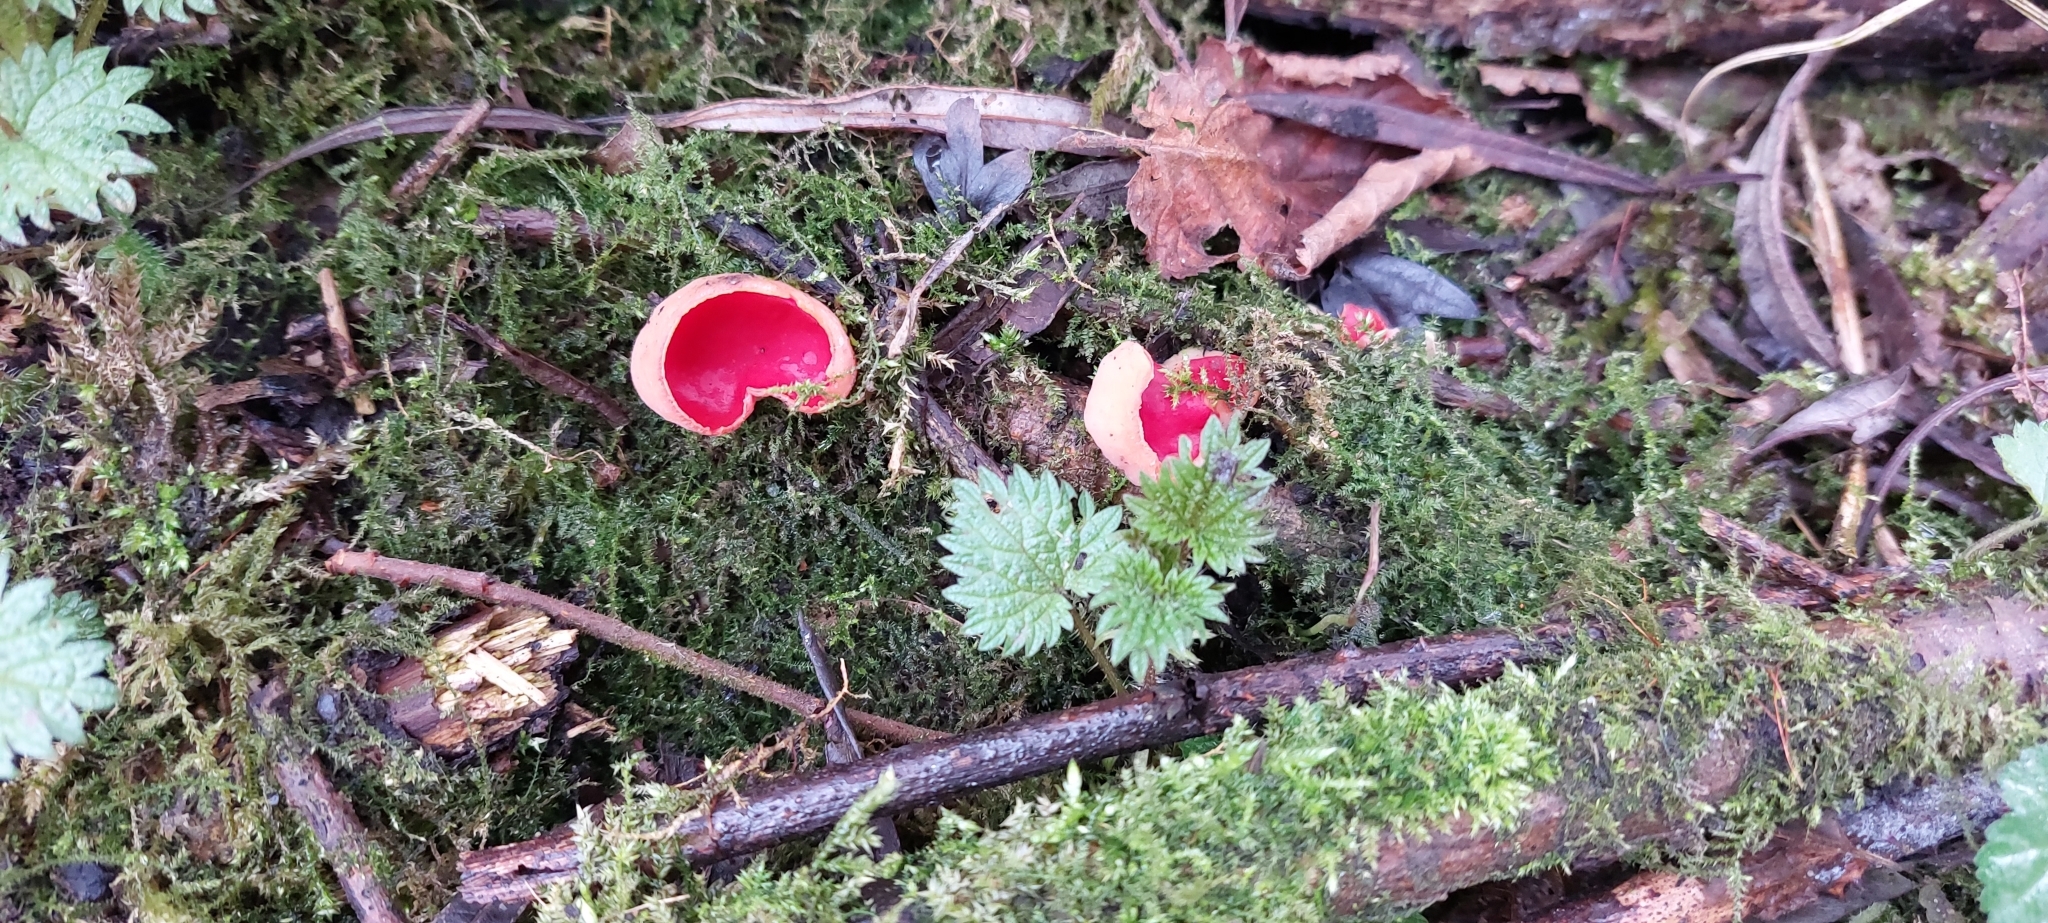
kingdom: Fungi
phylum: Ascomycota
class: Pezizomycetes
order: Pezizales
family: Sarcoscyphaceae
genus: Sarcoscypha
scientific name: Sarcoscypha
